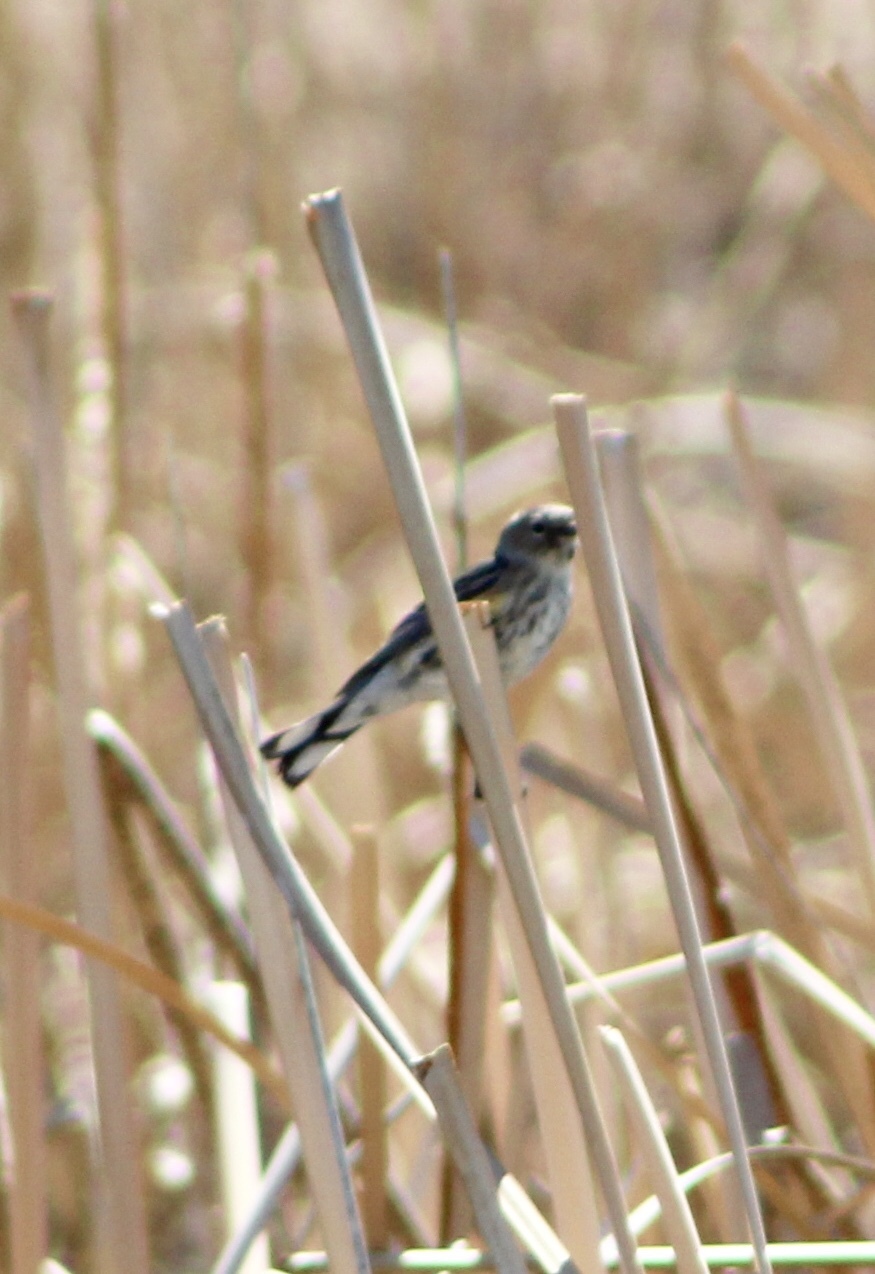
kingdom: Animalia
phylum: Chordata
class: Aves
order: Passeriformes
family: Parulidae
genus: Setophaga
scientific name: Setophaga coronata
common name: Myrtle warbler
